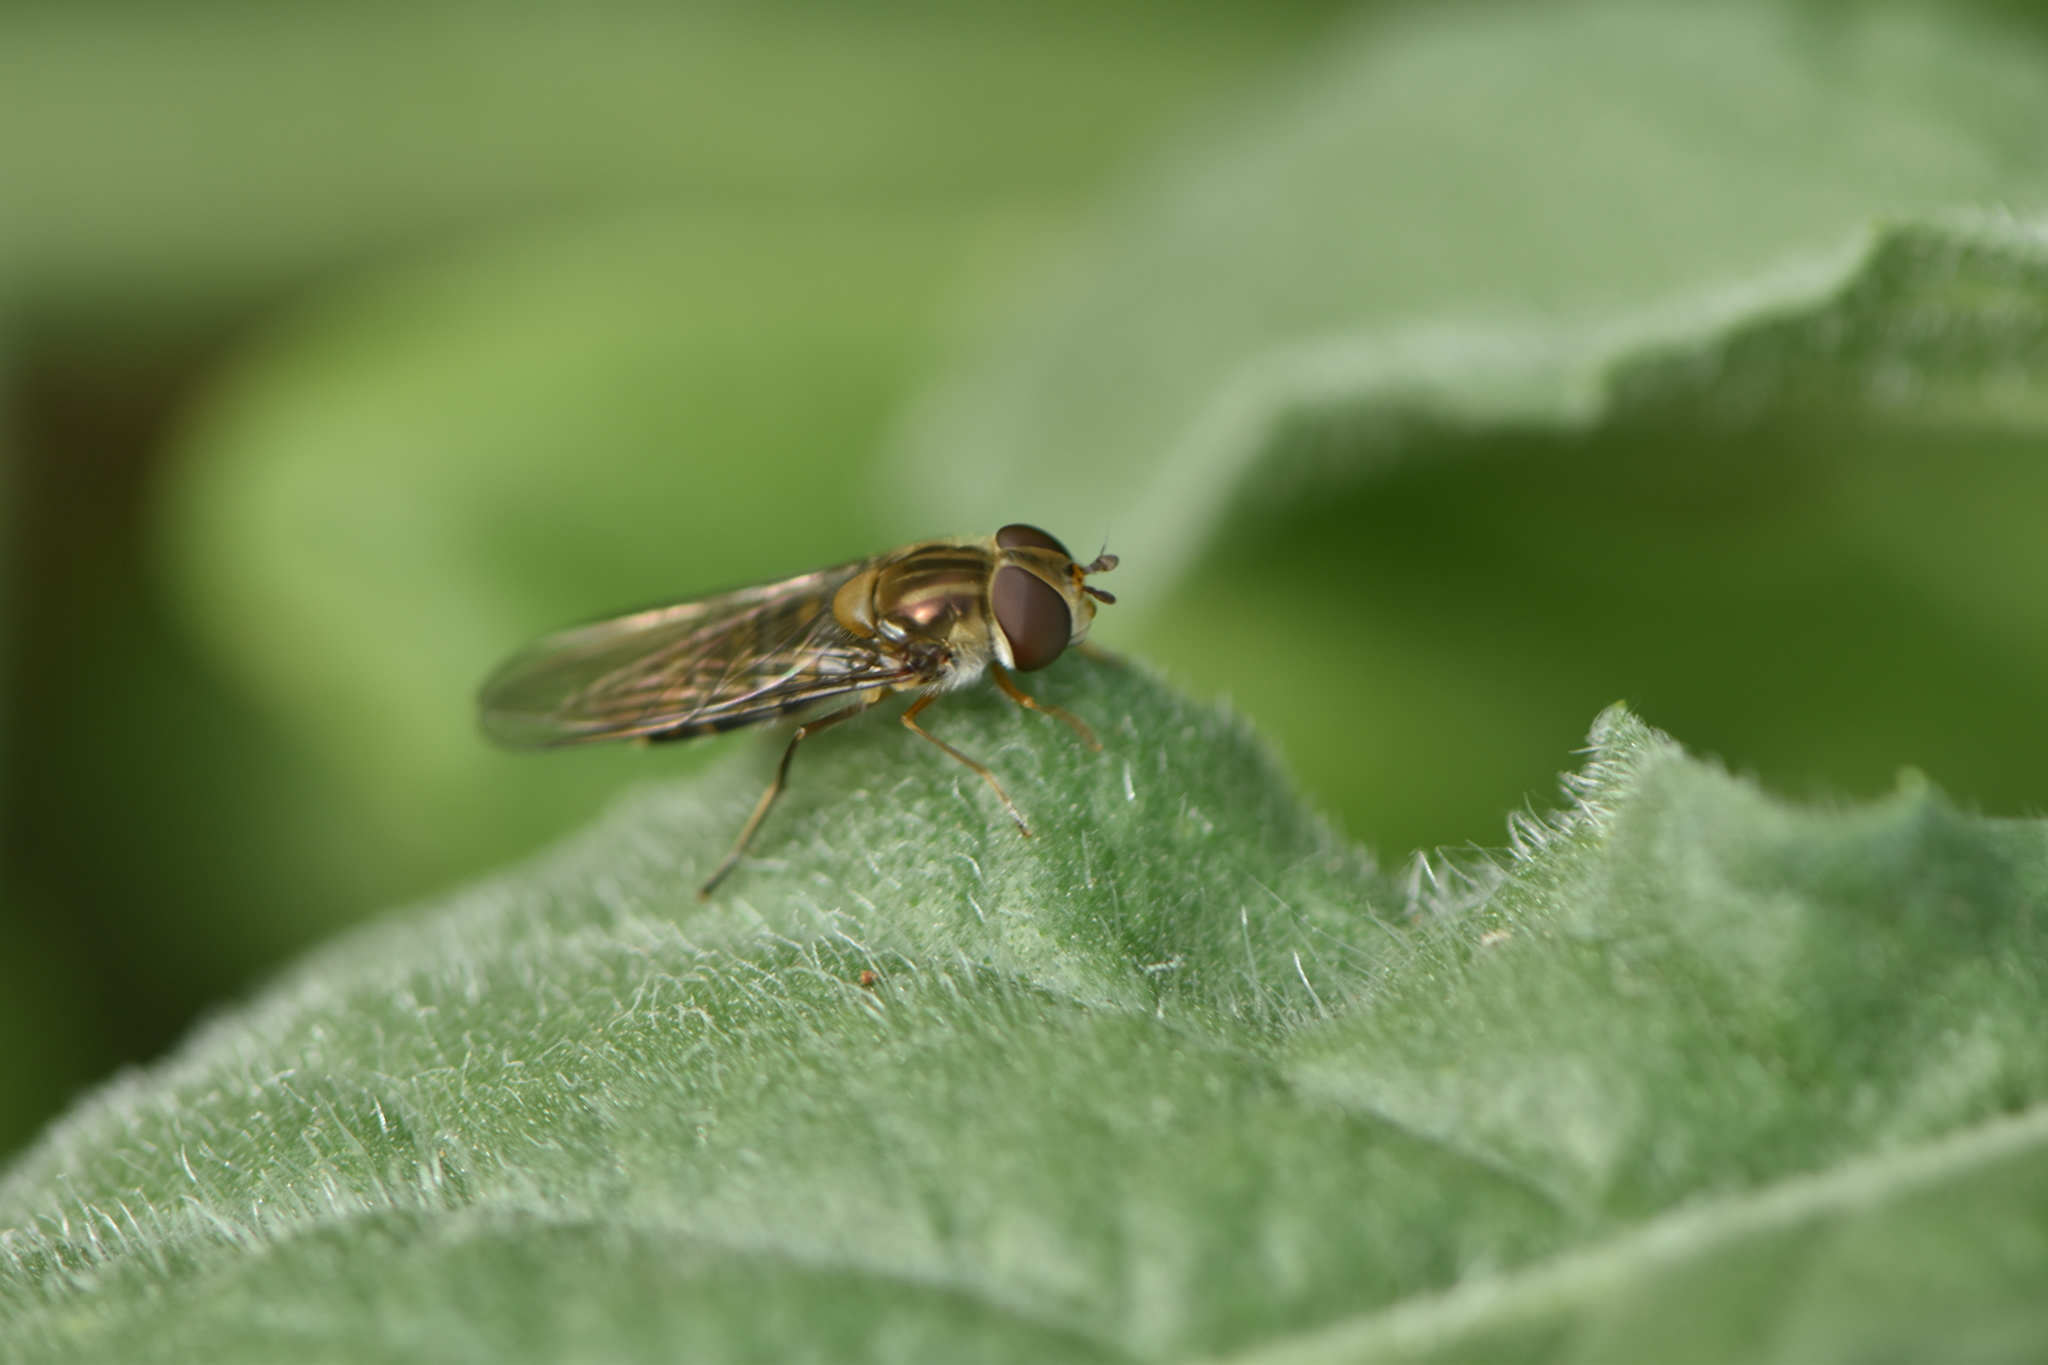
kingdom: Animalia
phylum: Arthropoda
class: Insecta
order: Diptera
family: Syrphidae
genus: Episyrphus
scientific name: Episyrphus balteatus
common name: Marmalade hoverfly
